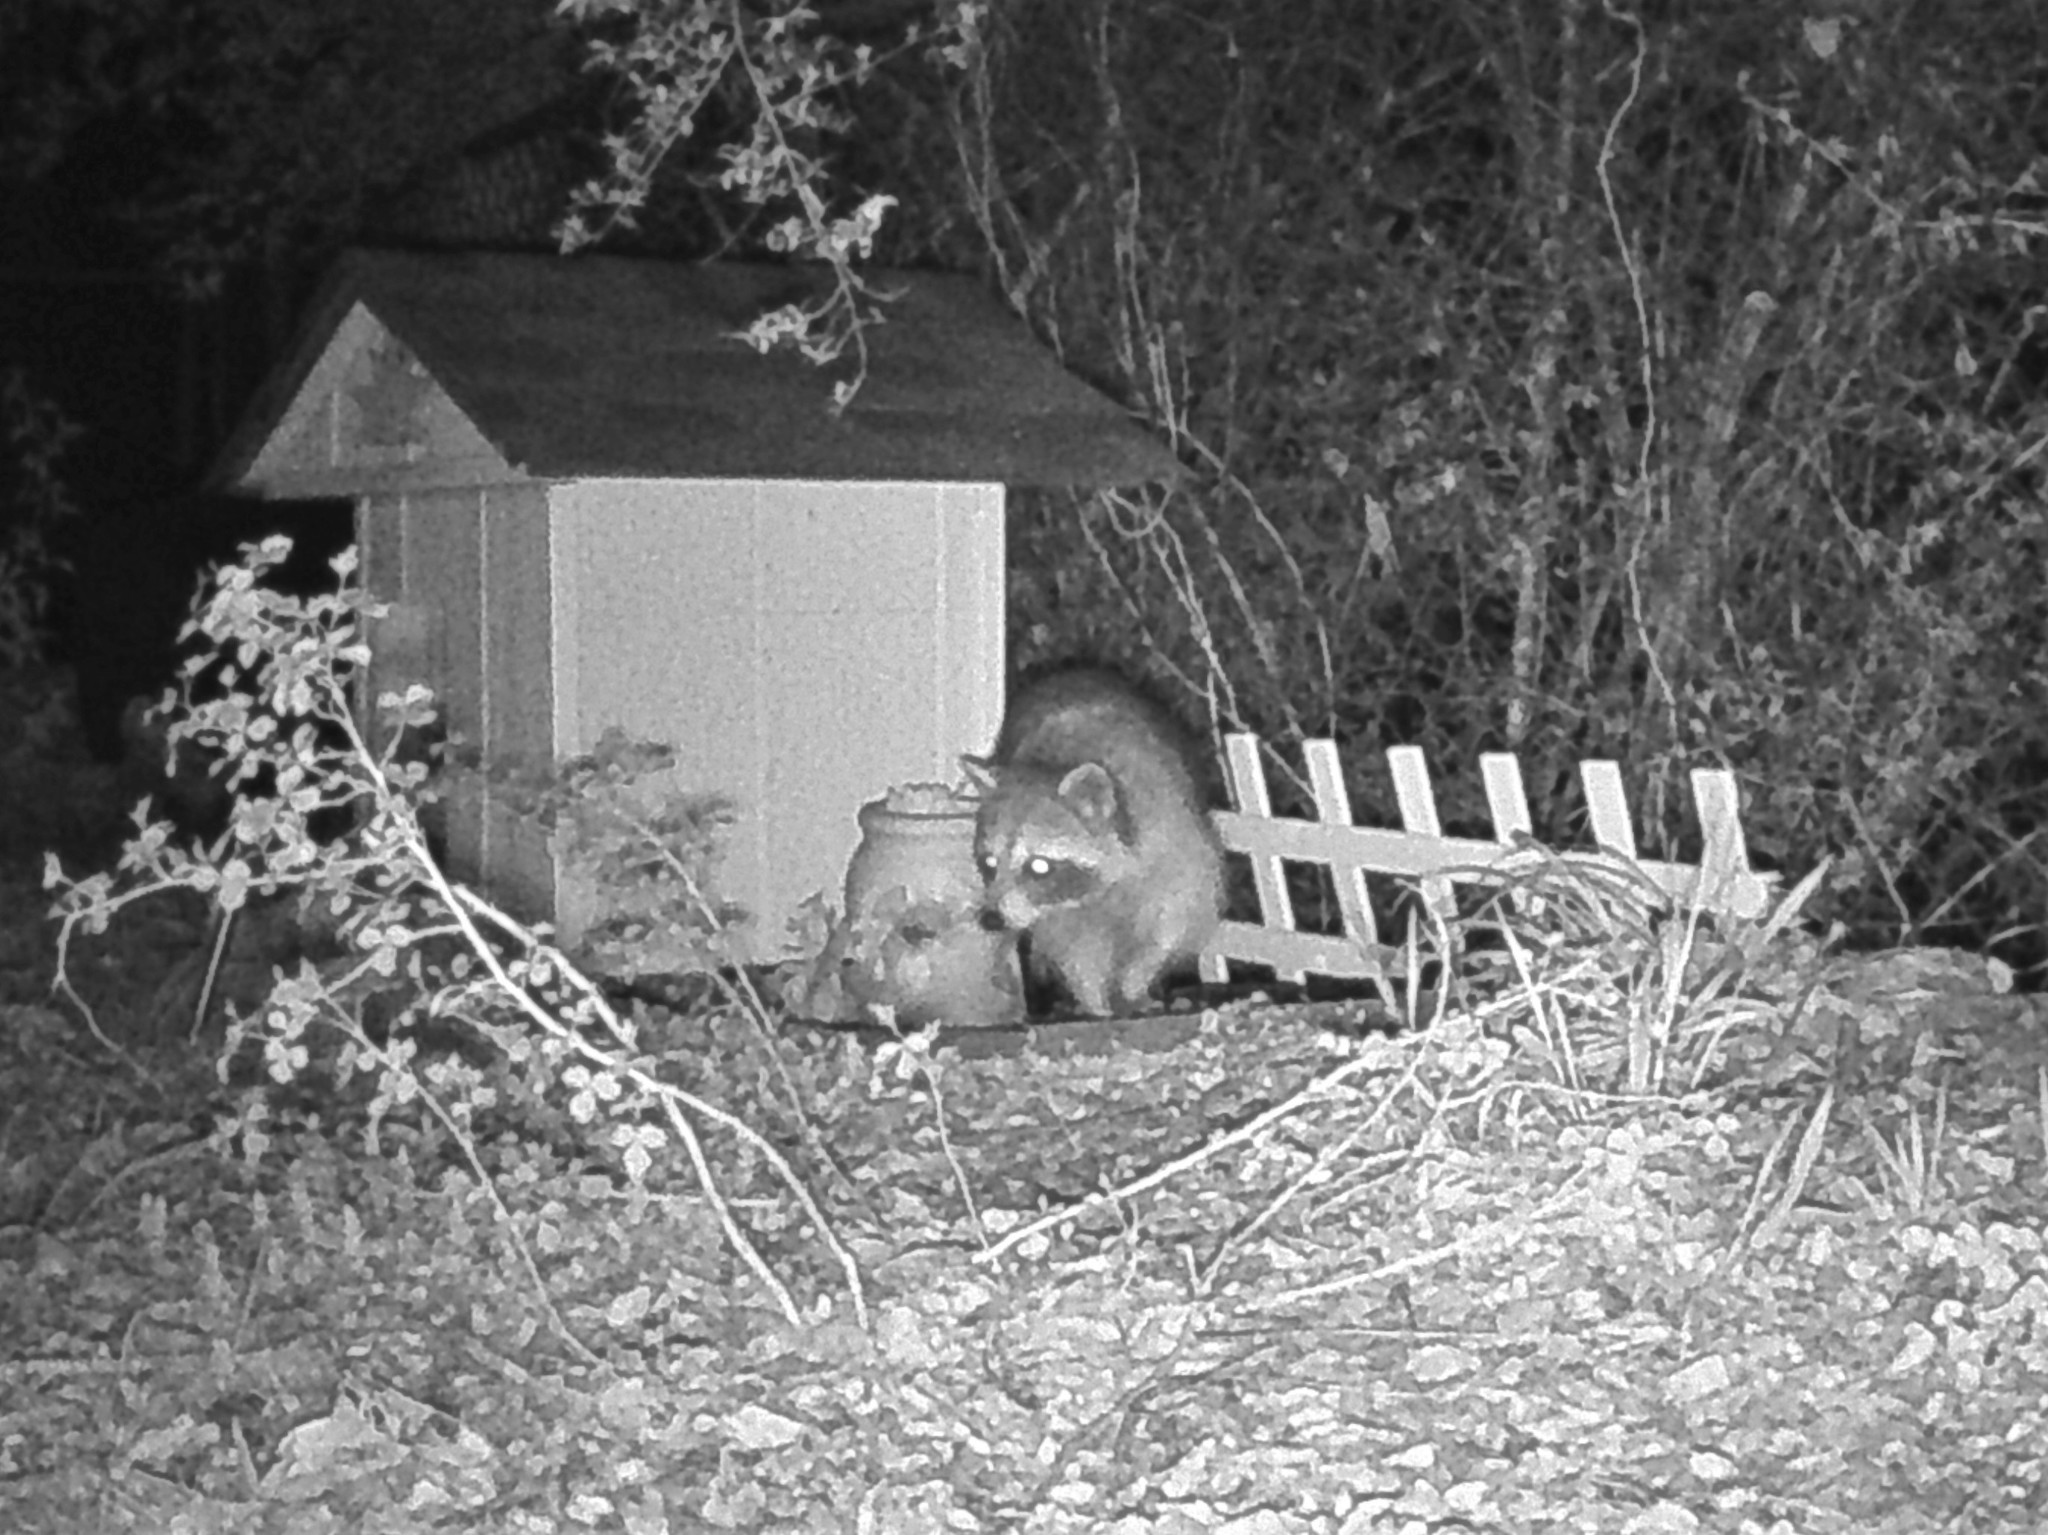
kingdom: Animalia
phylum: Chordata
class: Mammalia
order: Carnivora
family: Procyonidae
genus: Procyon
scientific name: Procyon lotor
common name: Raccoon
